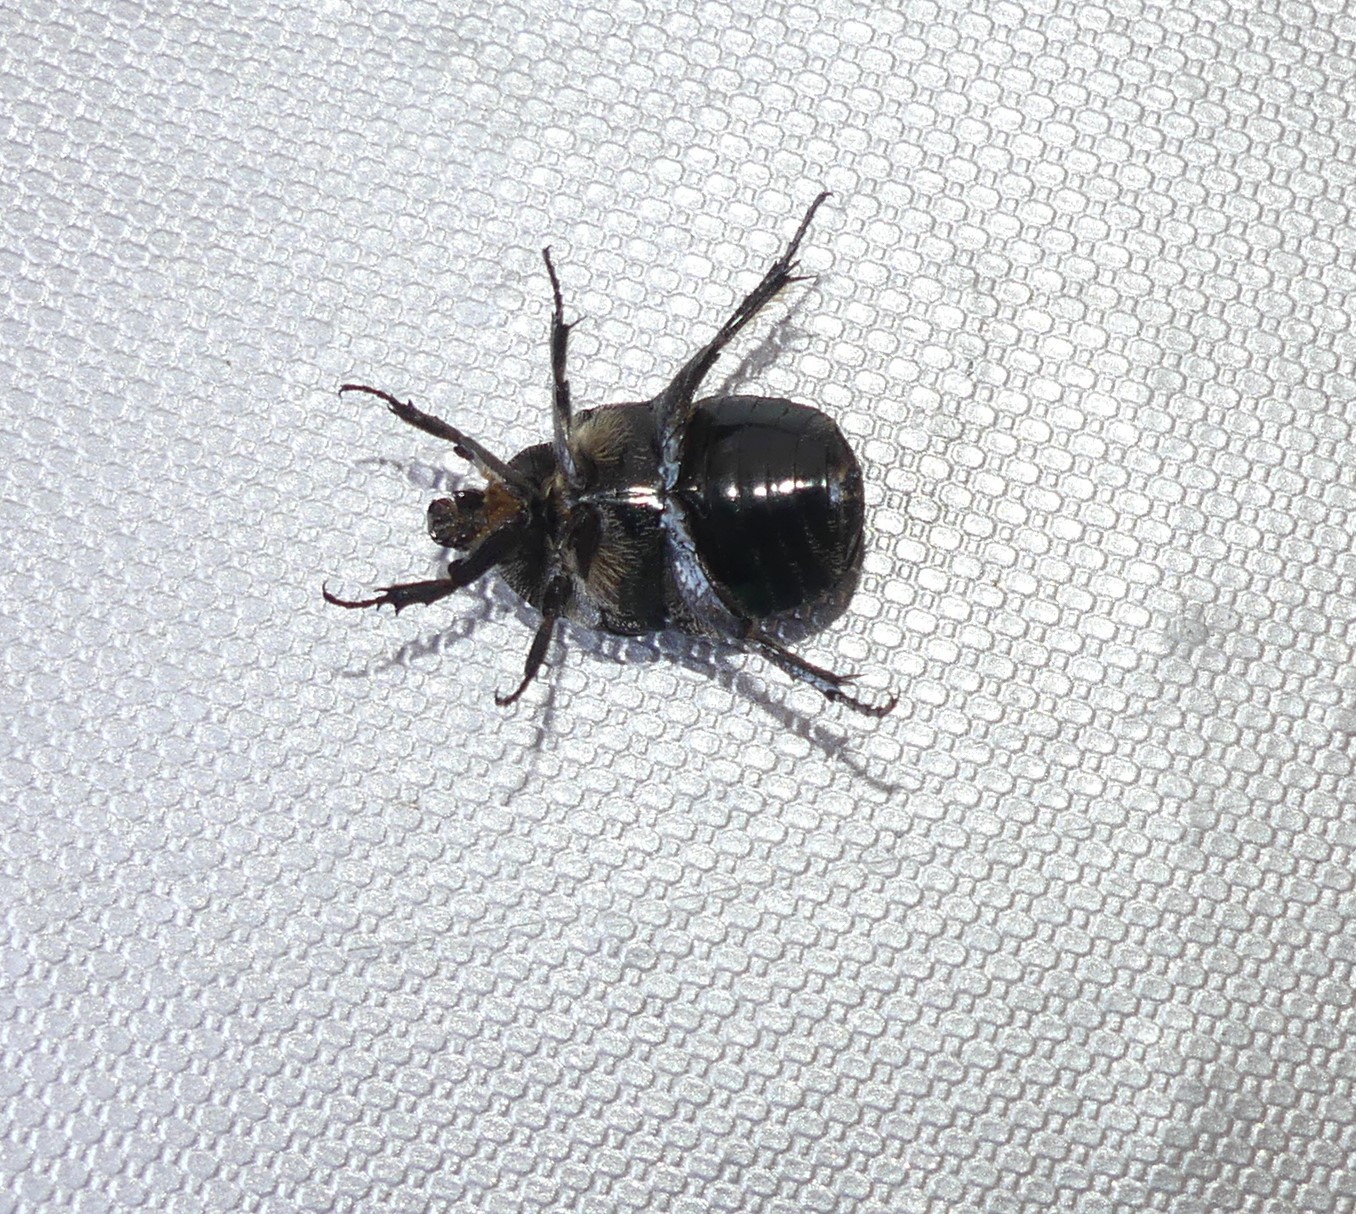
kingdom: Animalia
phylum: Arthropoda
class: Insecta
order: Coleoptera
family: Scarabaeidae
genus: Protaetia
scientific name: Protaetia morio
